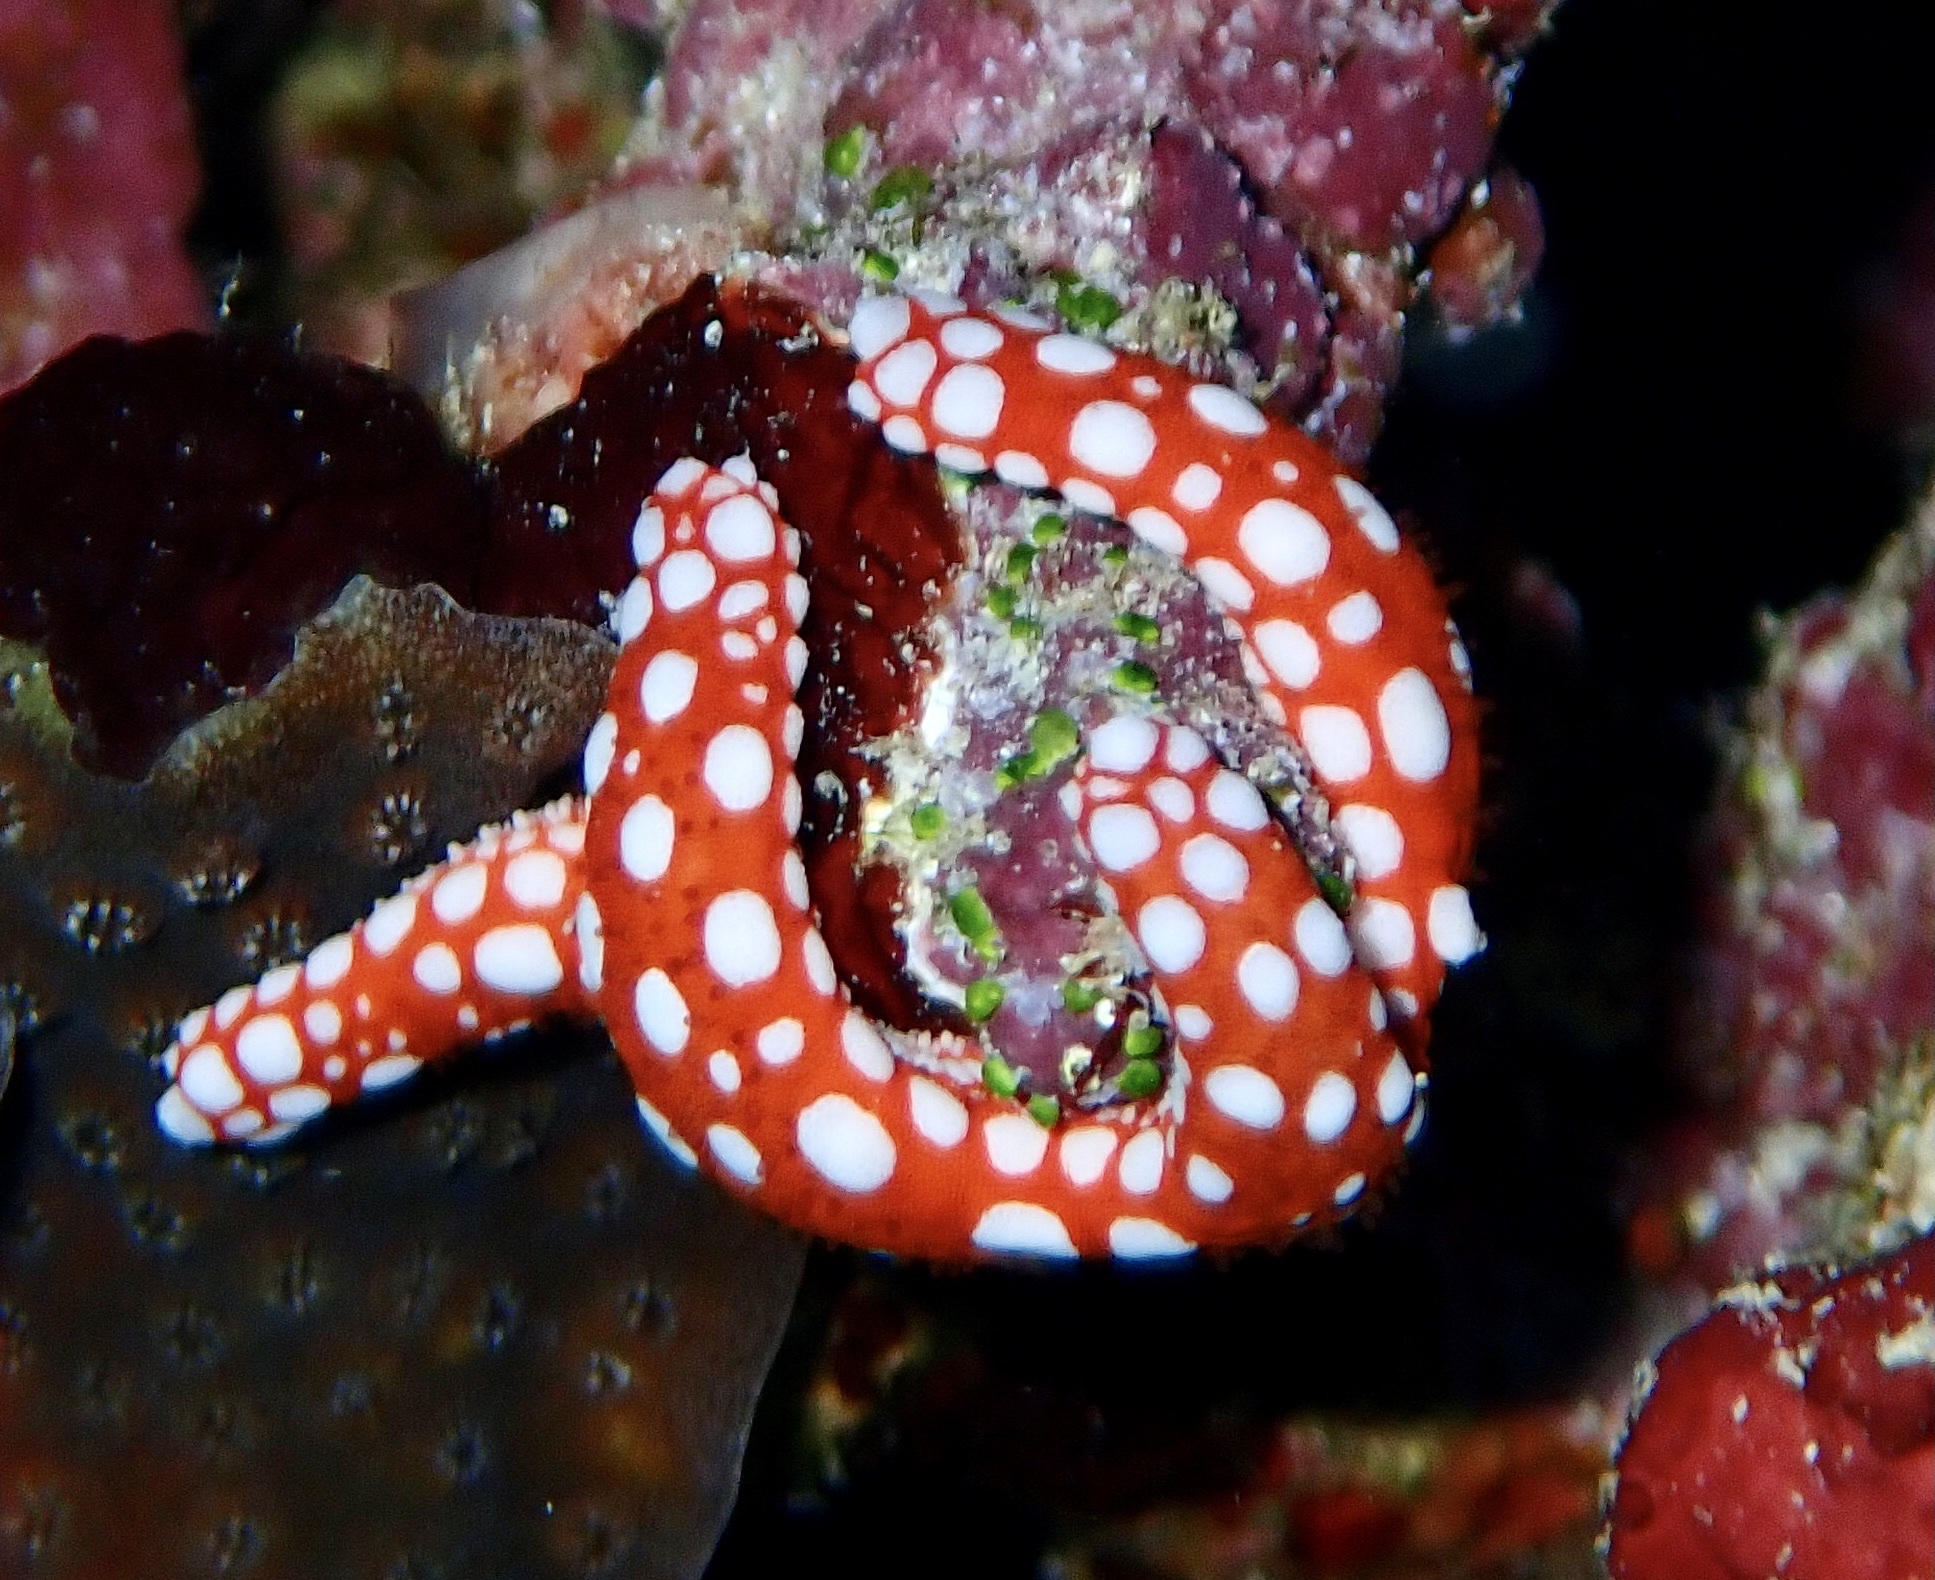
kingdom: Animalia
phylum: Echinodermata
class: Asteroidea
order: Valvatida
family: Goniasteridae
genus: Fromia
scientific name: Fromia ghardaqana
